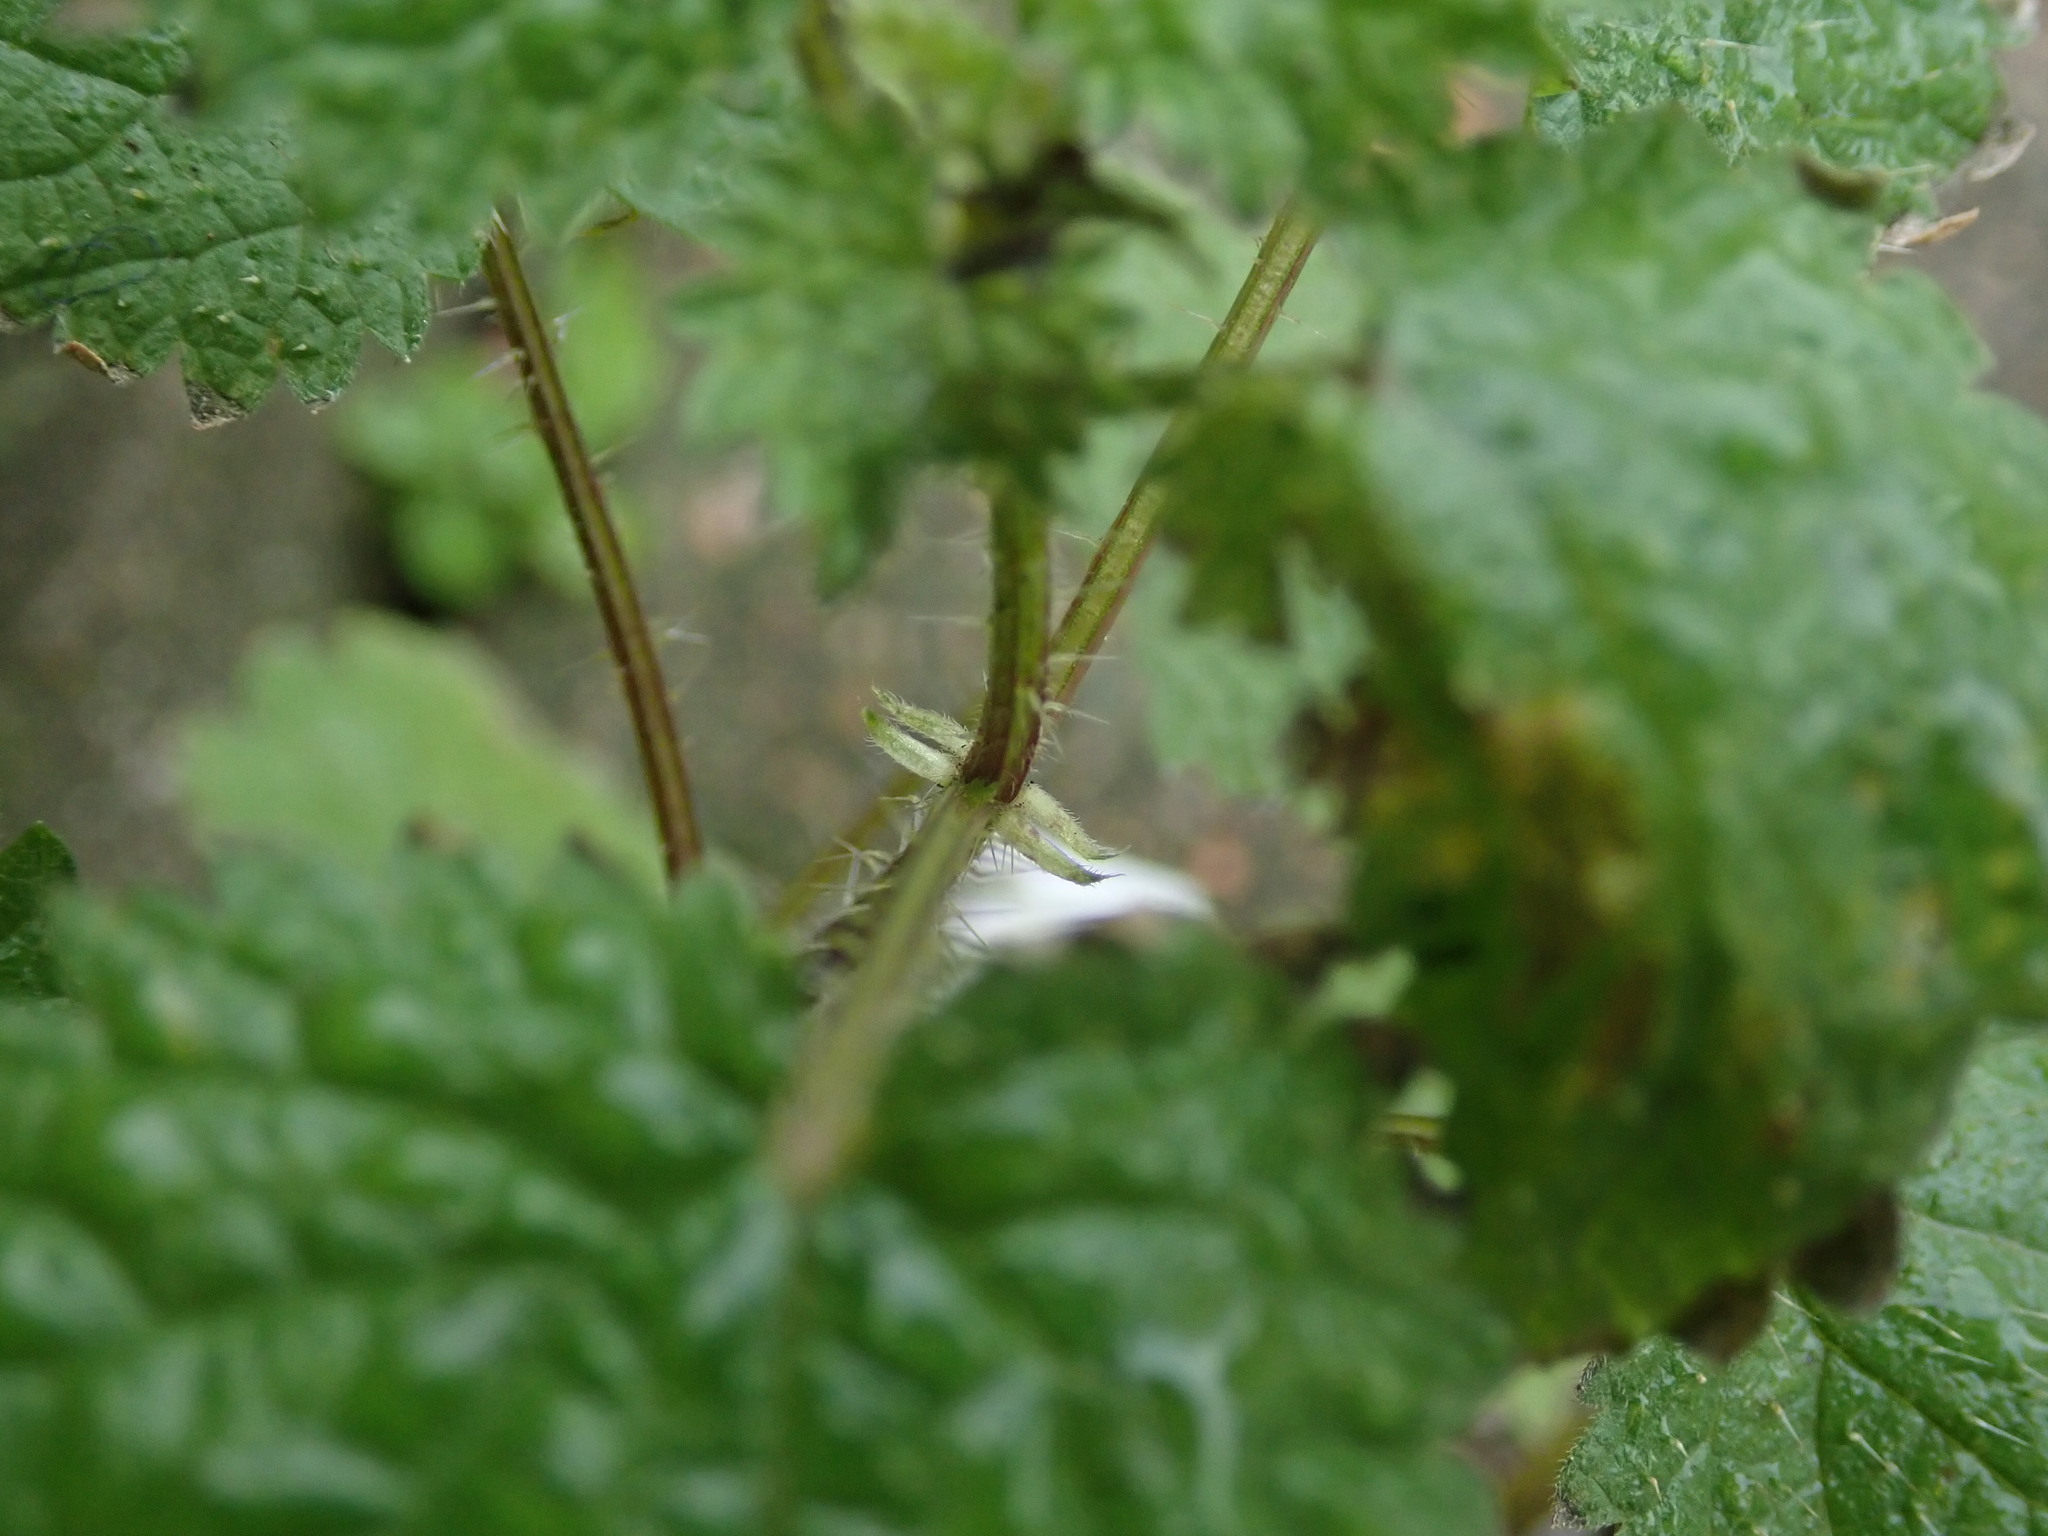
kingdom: Plantae
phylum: Tracheophyta
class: Magnoliopsida
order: Rosales
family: Urticaceae
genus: Urtica
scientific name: Urtica dioica
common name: Common nettle
